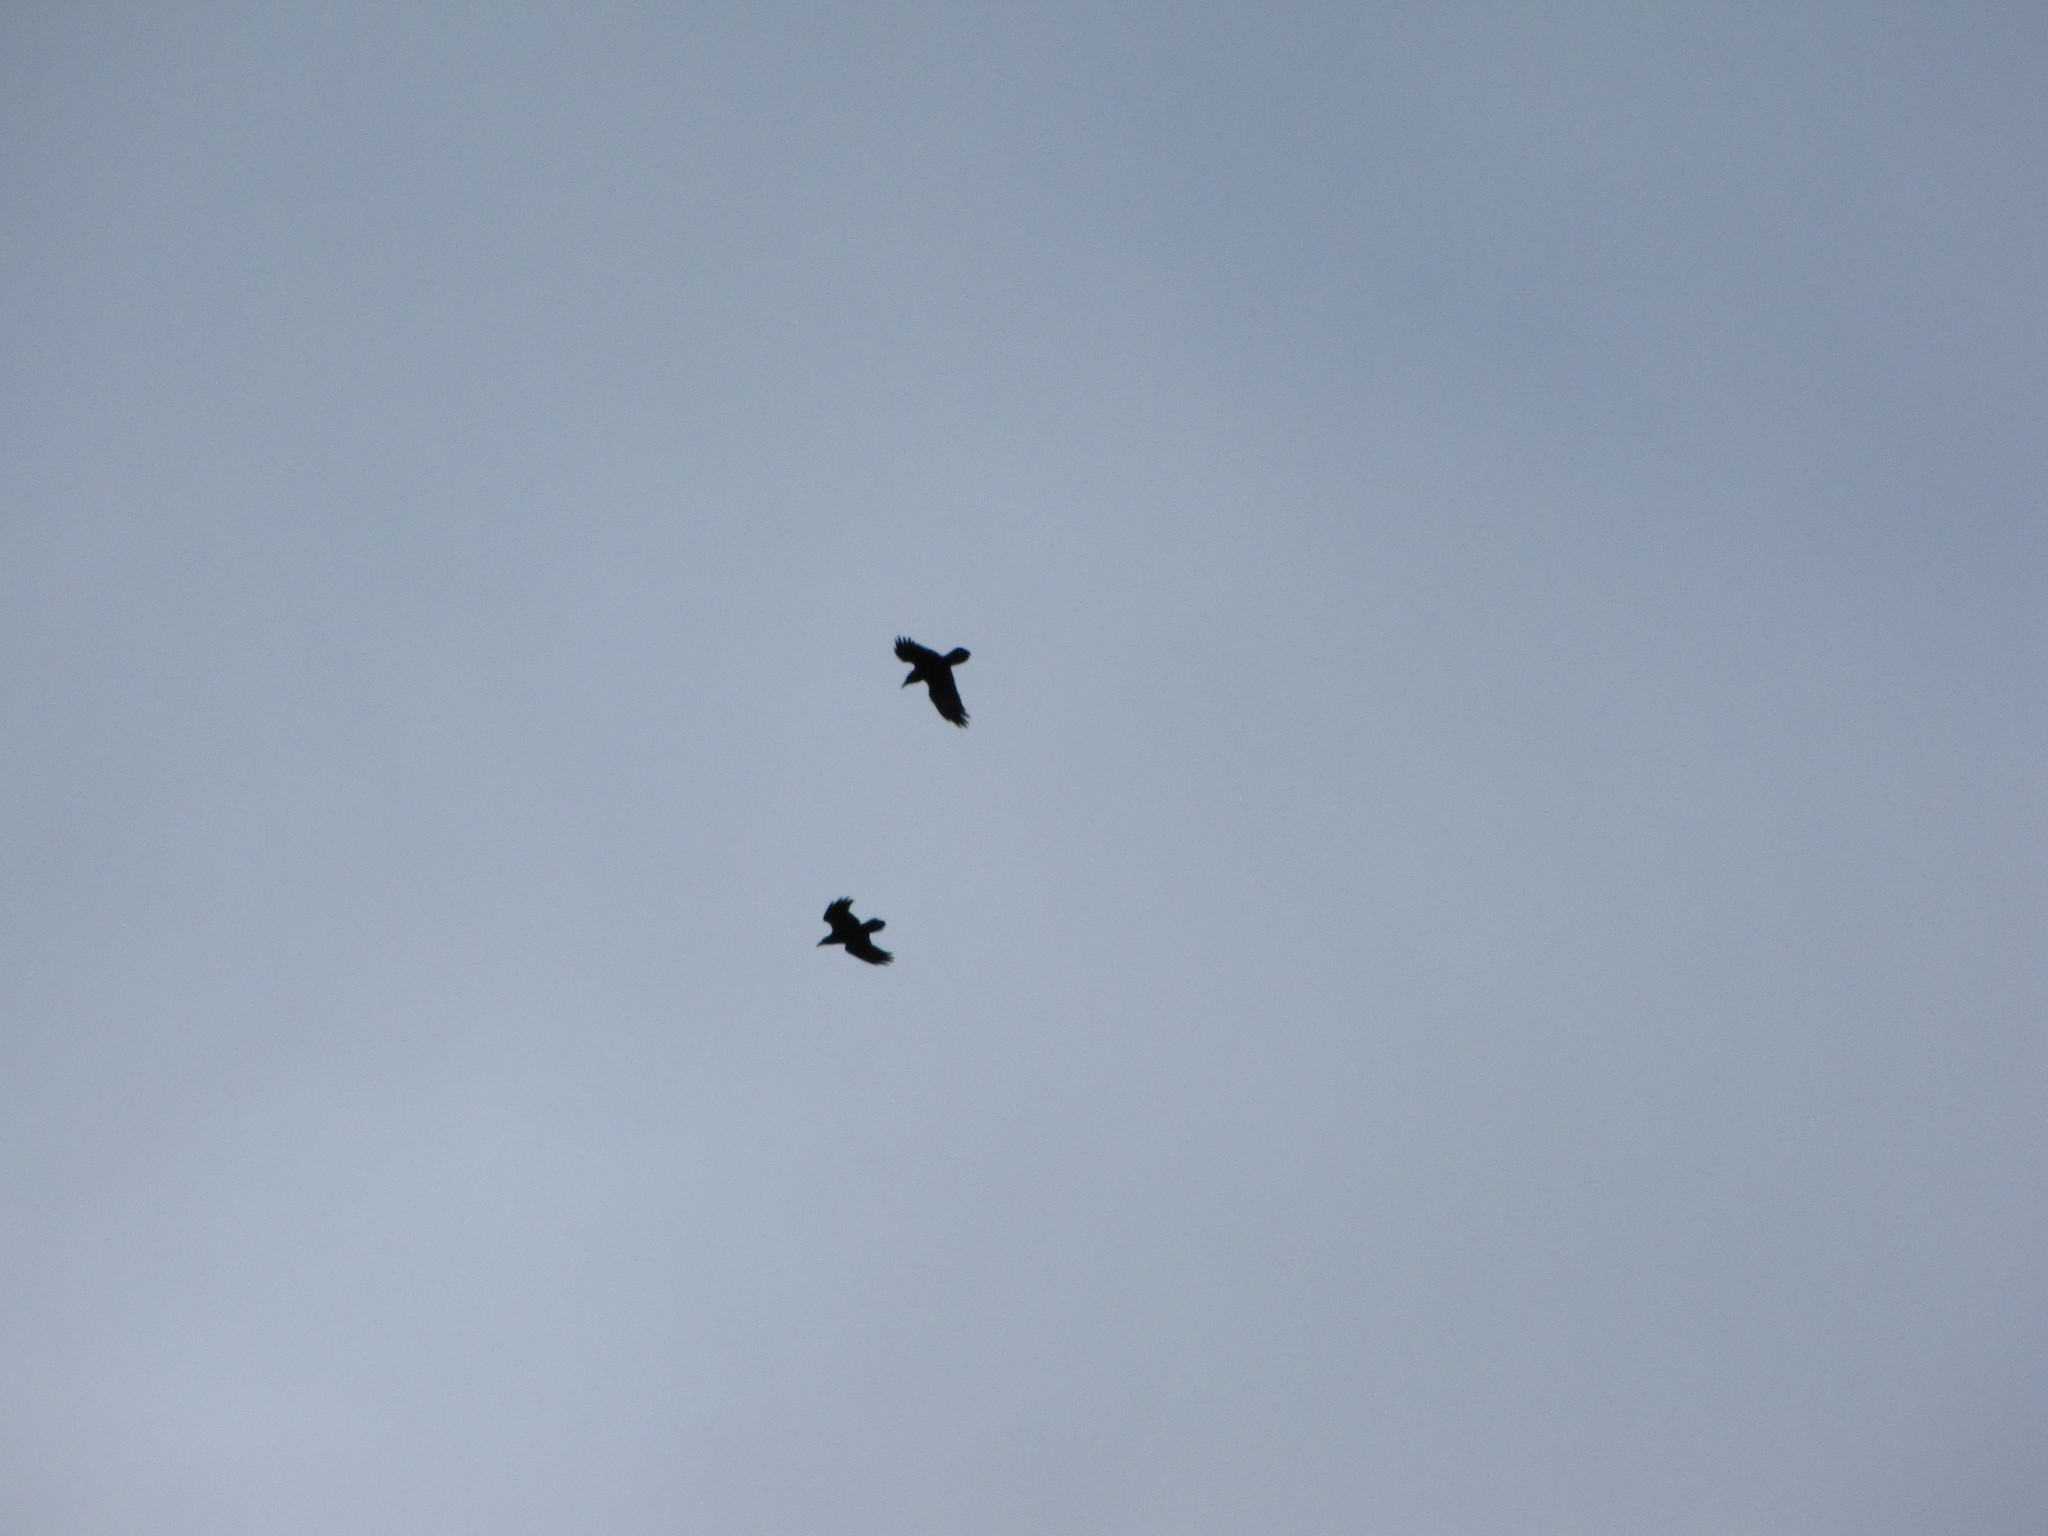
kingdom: Animalia
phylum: Chordata
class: Aves
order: Passeriformes
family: Corvidae
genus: Corvus
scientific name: Corvus corax
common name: Common raven
